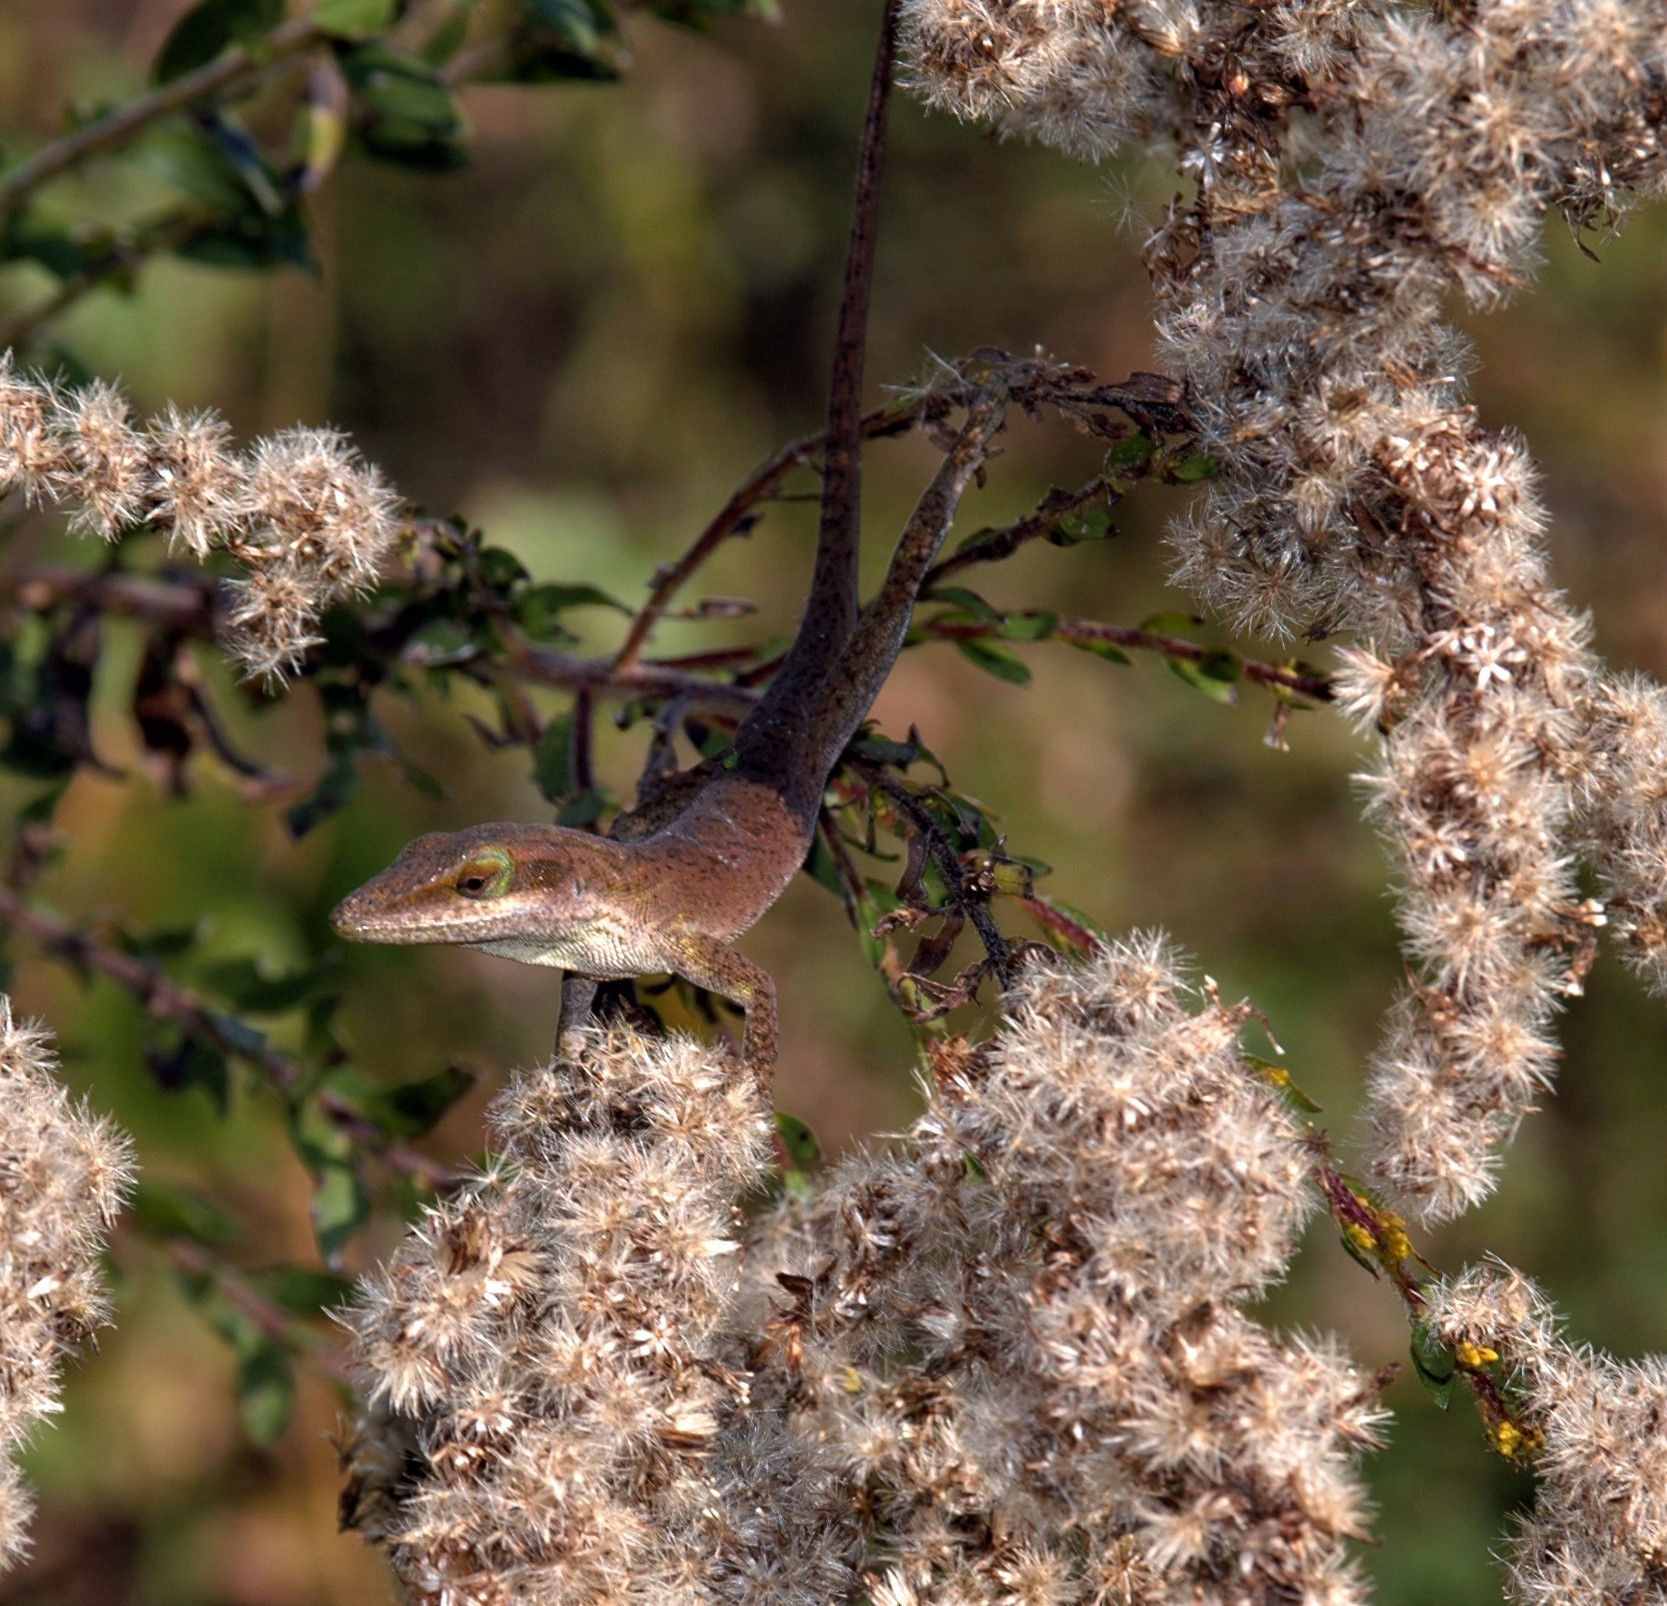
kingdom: Animalia
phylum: Chordata
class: Squamata
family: Dactyloidae
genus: Anolis
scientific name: Anolis carolinensis
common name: Green anole
